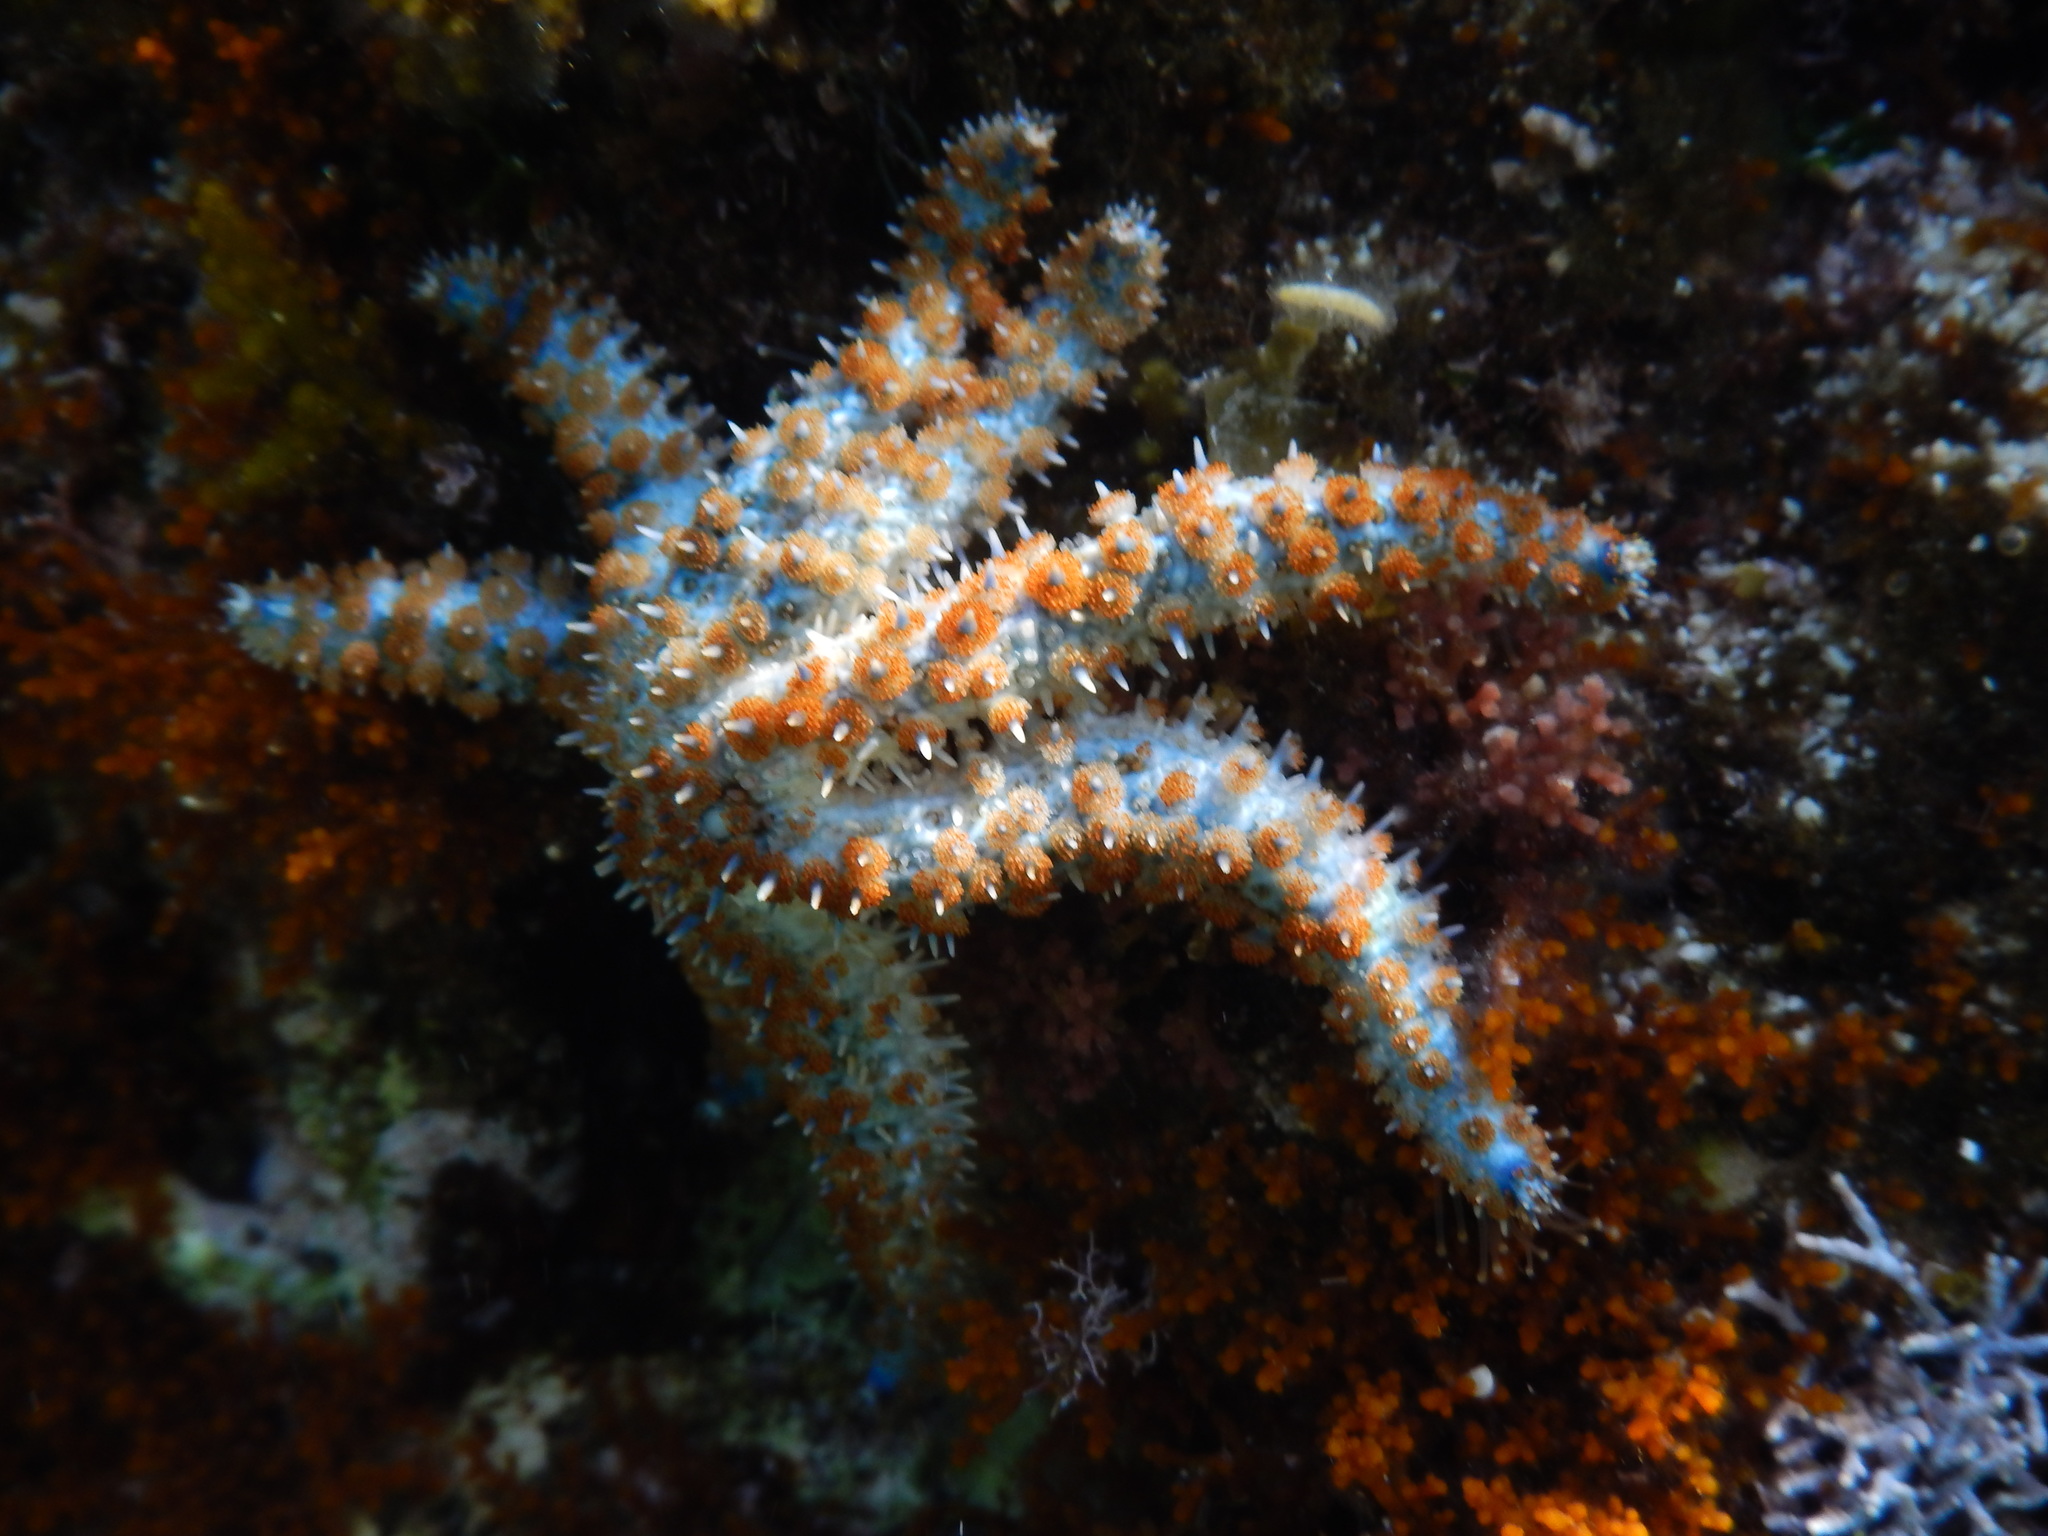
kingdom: Animalia
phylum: Echinodermata
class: Asteroidea
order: Forcipulatida
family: Asteriidae
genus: Coscinasterias
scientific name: Coscinasterias tenuispina
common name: Blue spiny starfish
